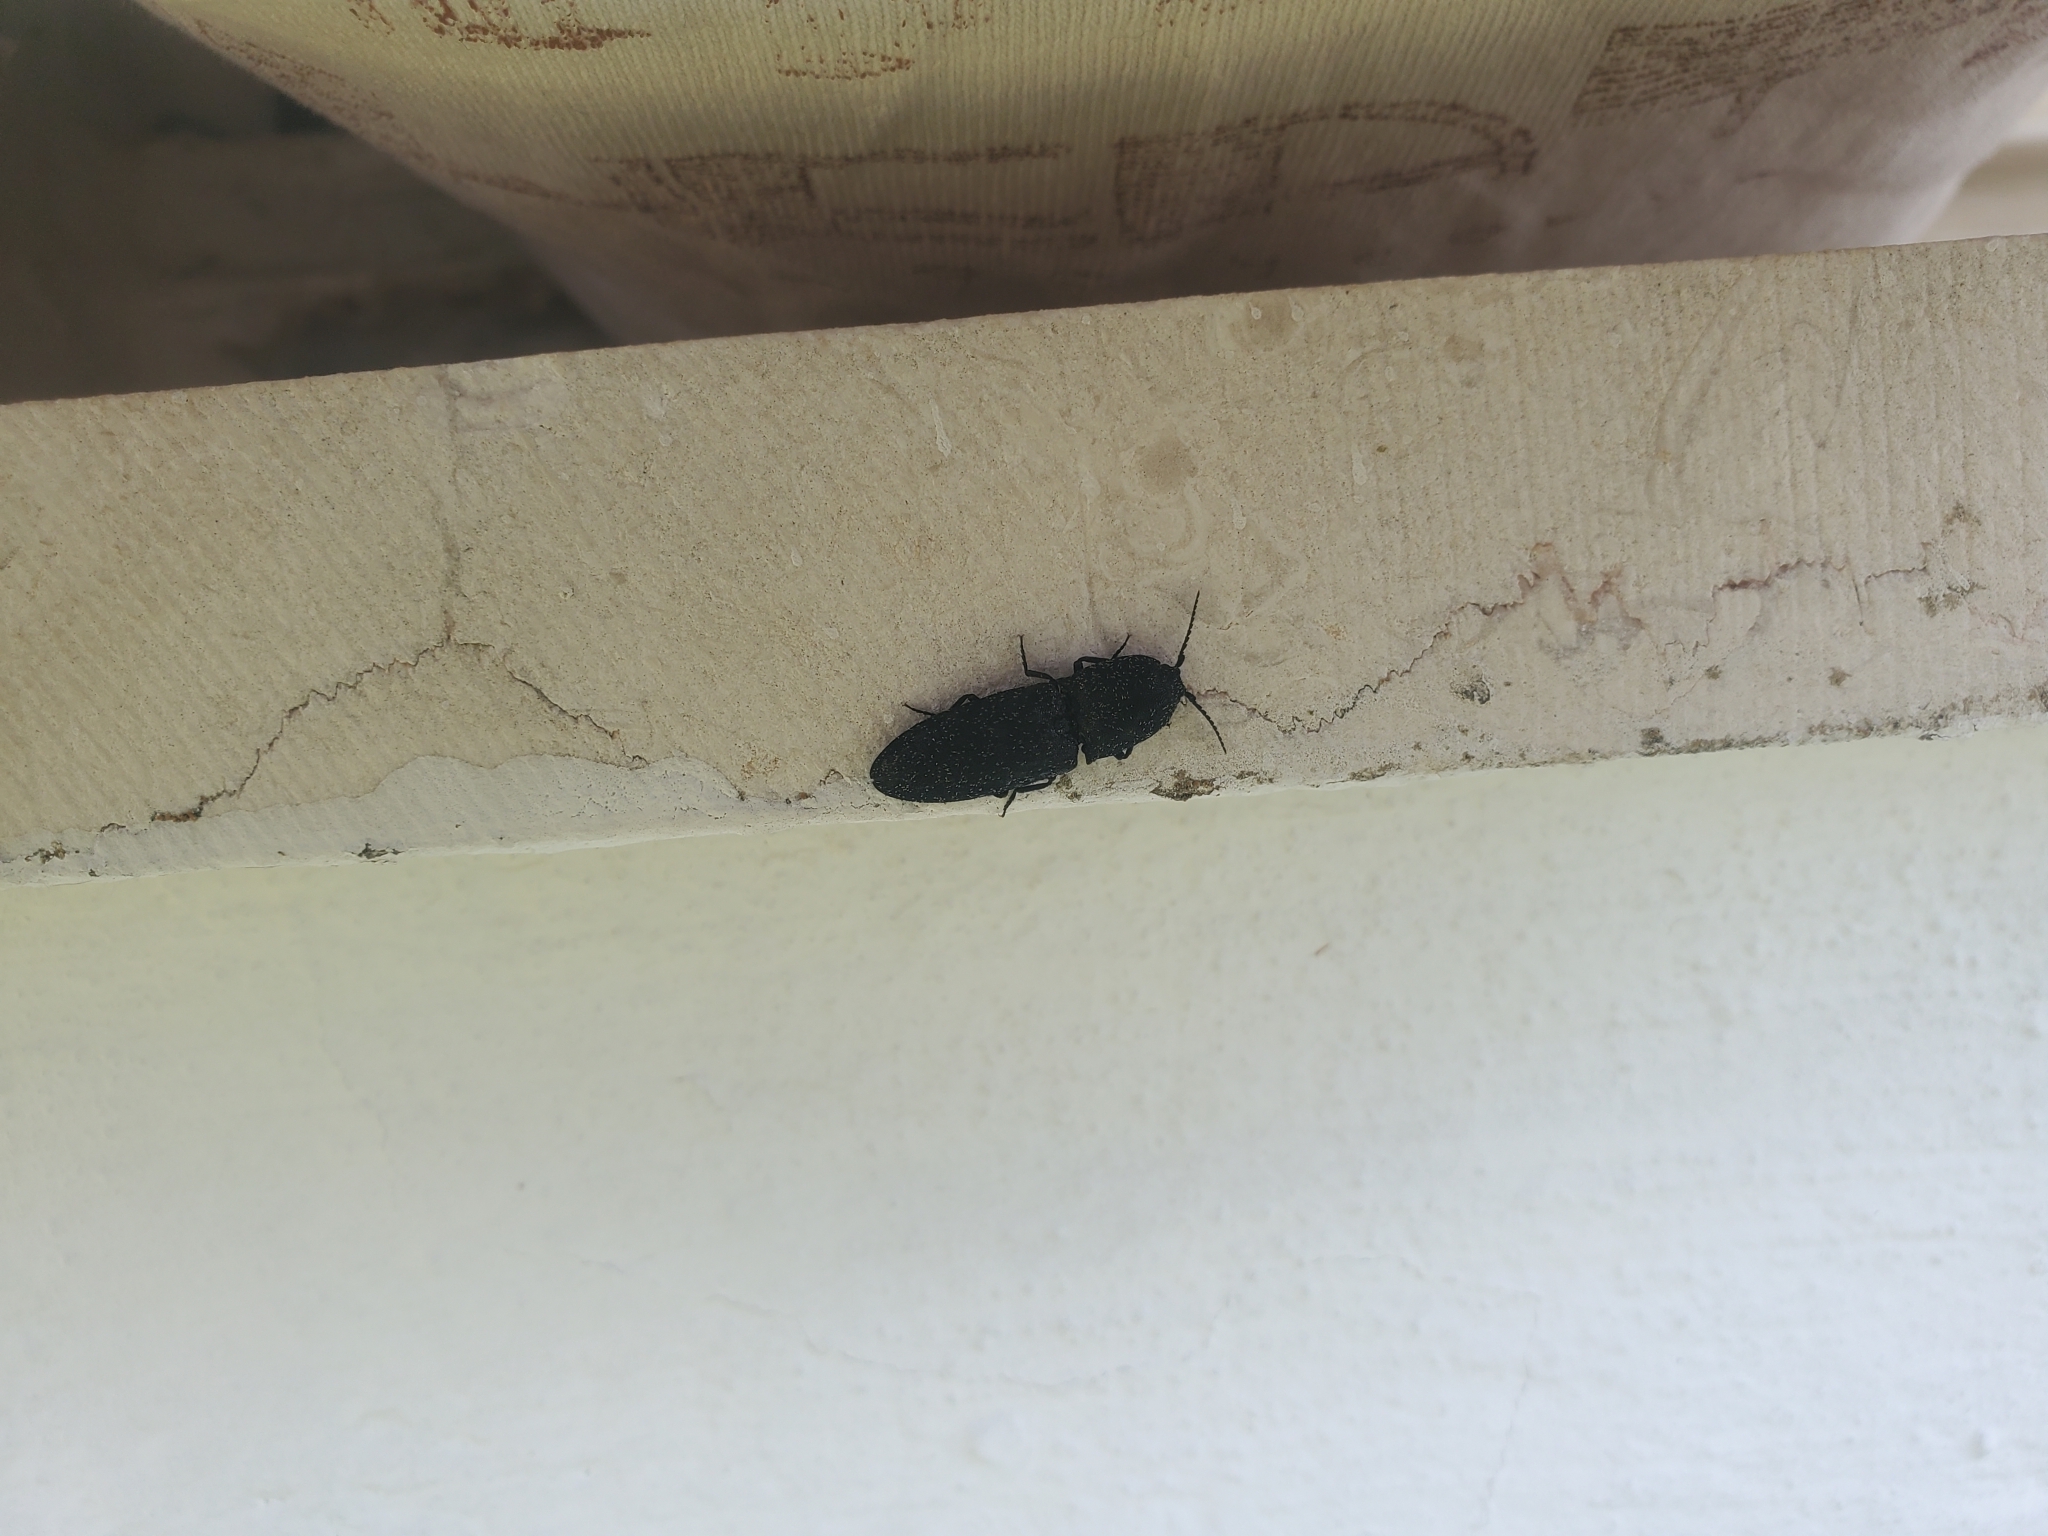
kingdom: Animalia
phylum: Arthropoda
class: Insecta
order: Coleoptera
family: Elateridae
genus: Lacon
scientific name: Lacon punctatus
